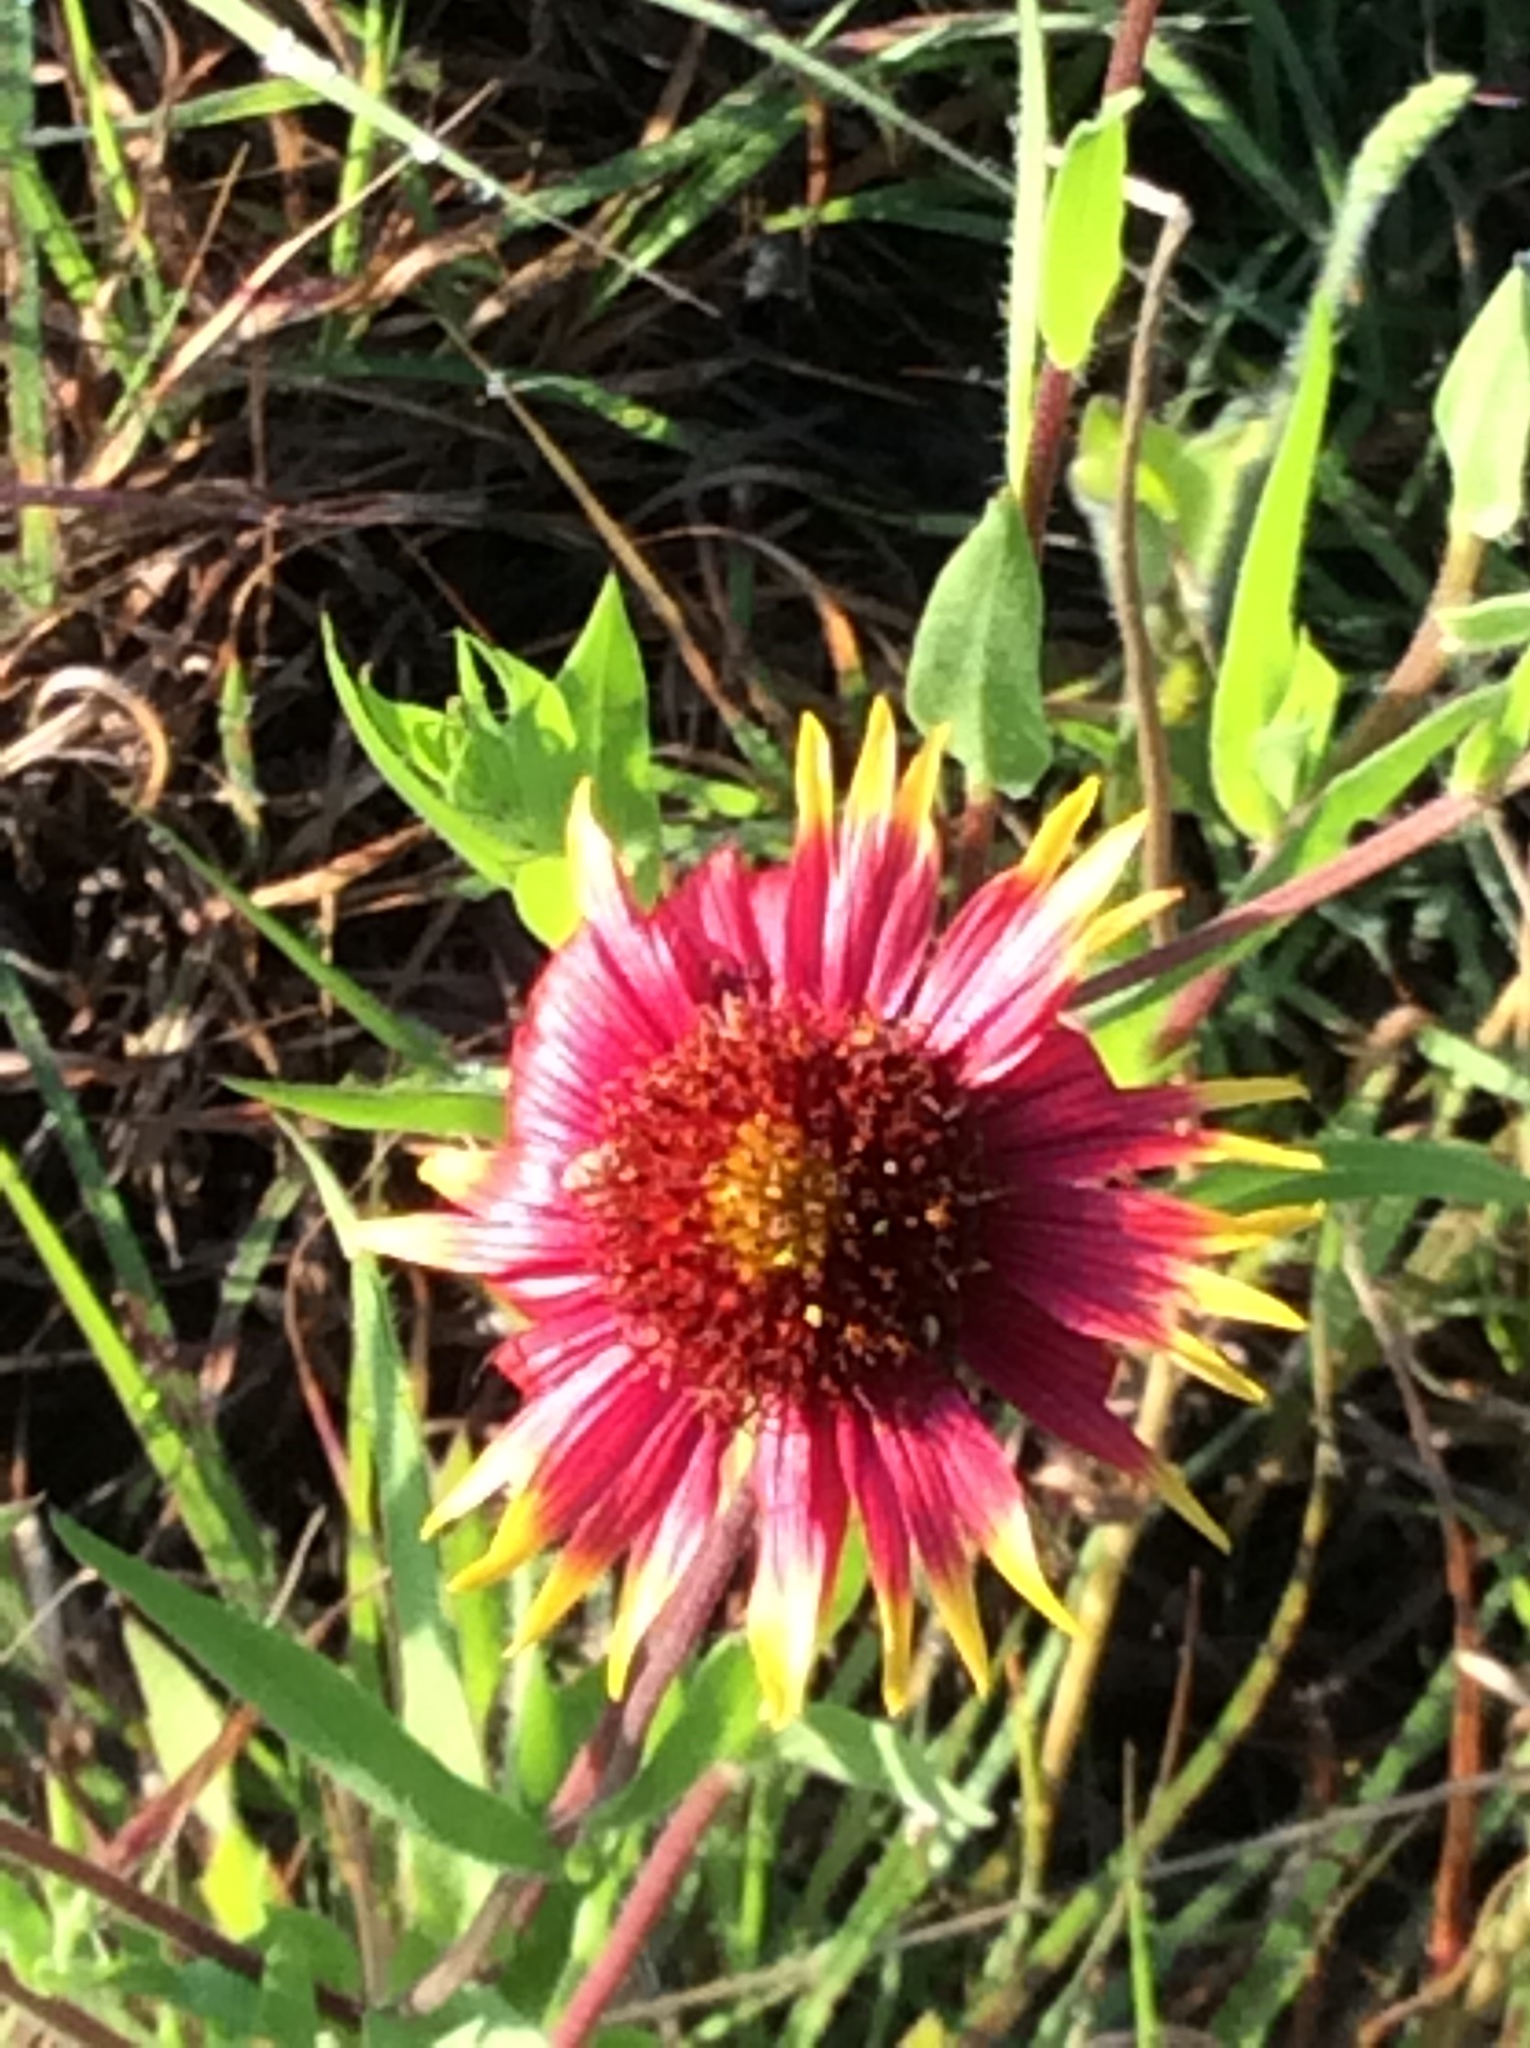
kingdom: Plantae
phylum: Tracheophyta
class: Magnoliopsida
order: Asterales
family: Asteraceae
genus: Gaillardia
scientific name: Gaillardia pulchella
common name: Firewheel
